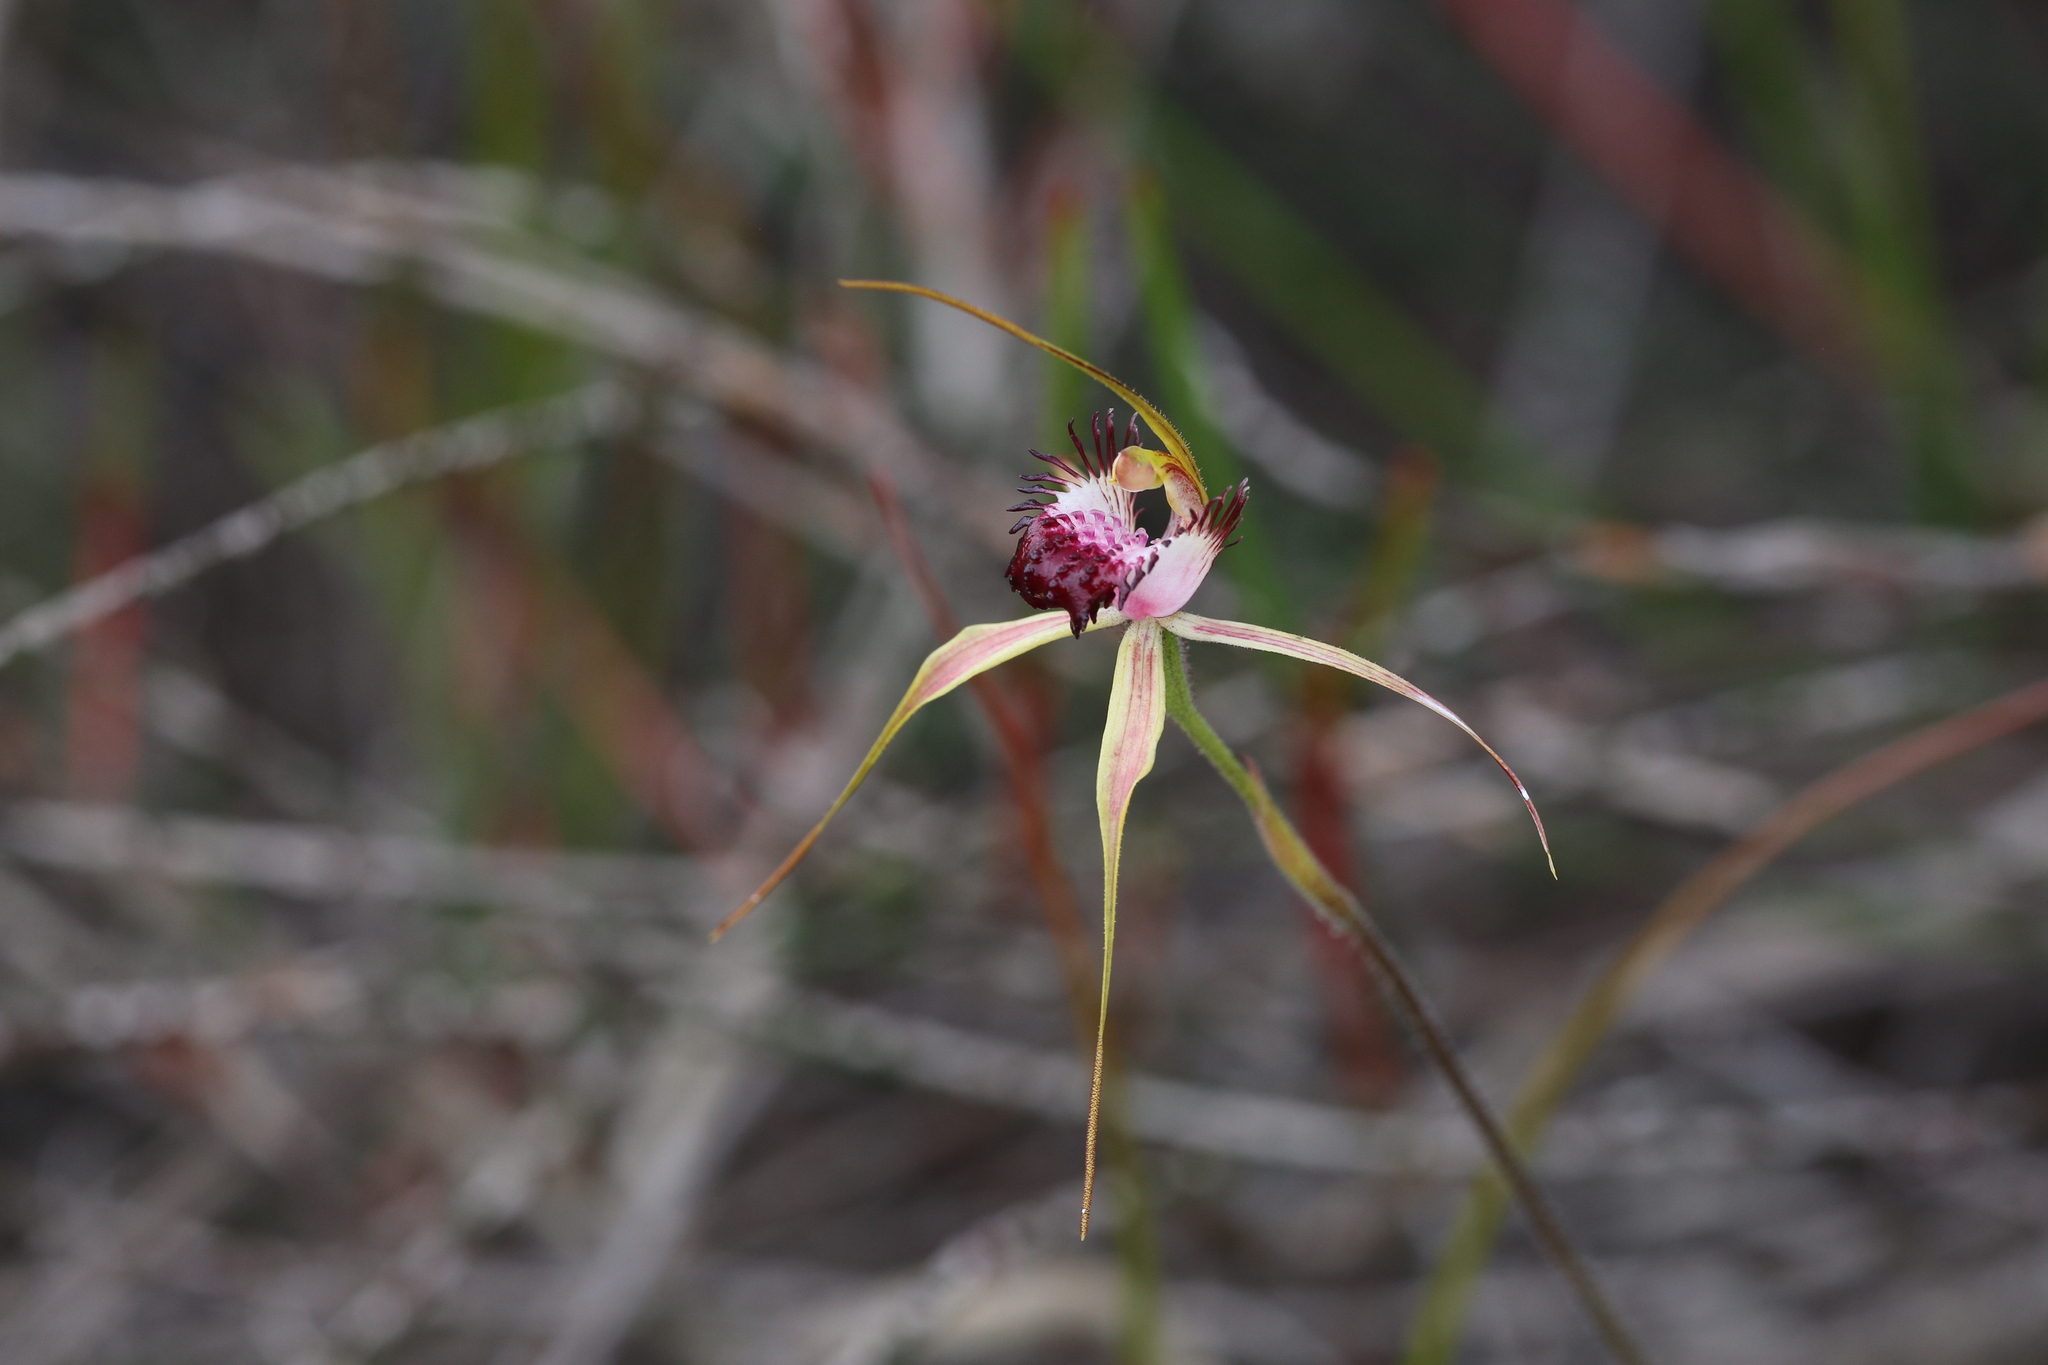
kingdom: Plantae
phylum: Tracheophyta
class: Liliopsida
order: Asparagales
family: Orchidaceae
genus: Caladenia
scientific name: Caladenia paludosa
